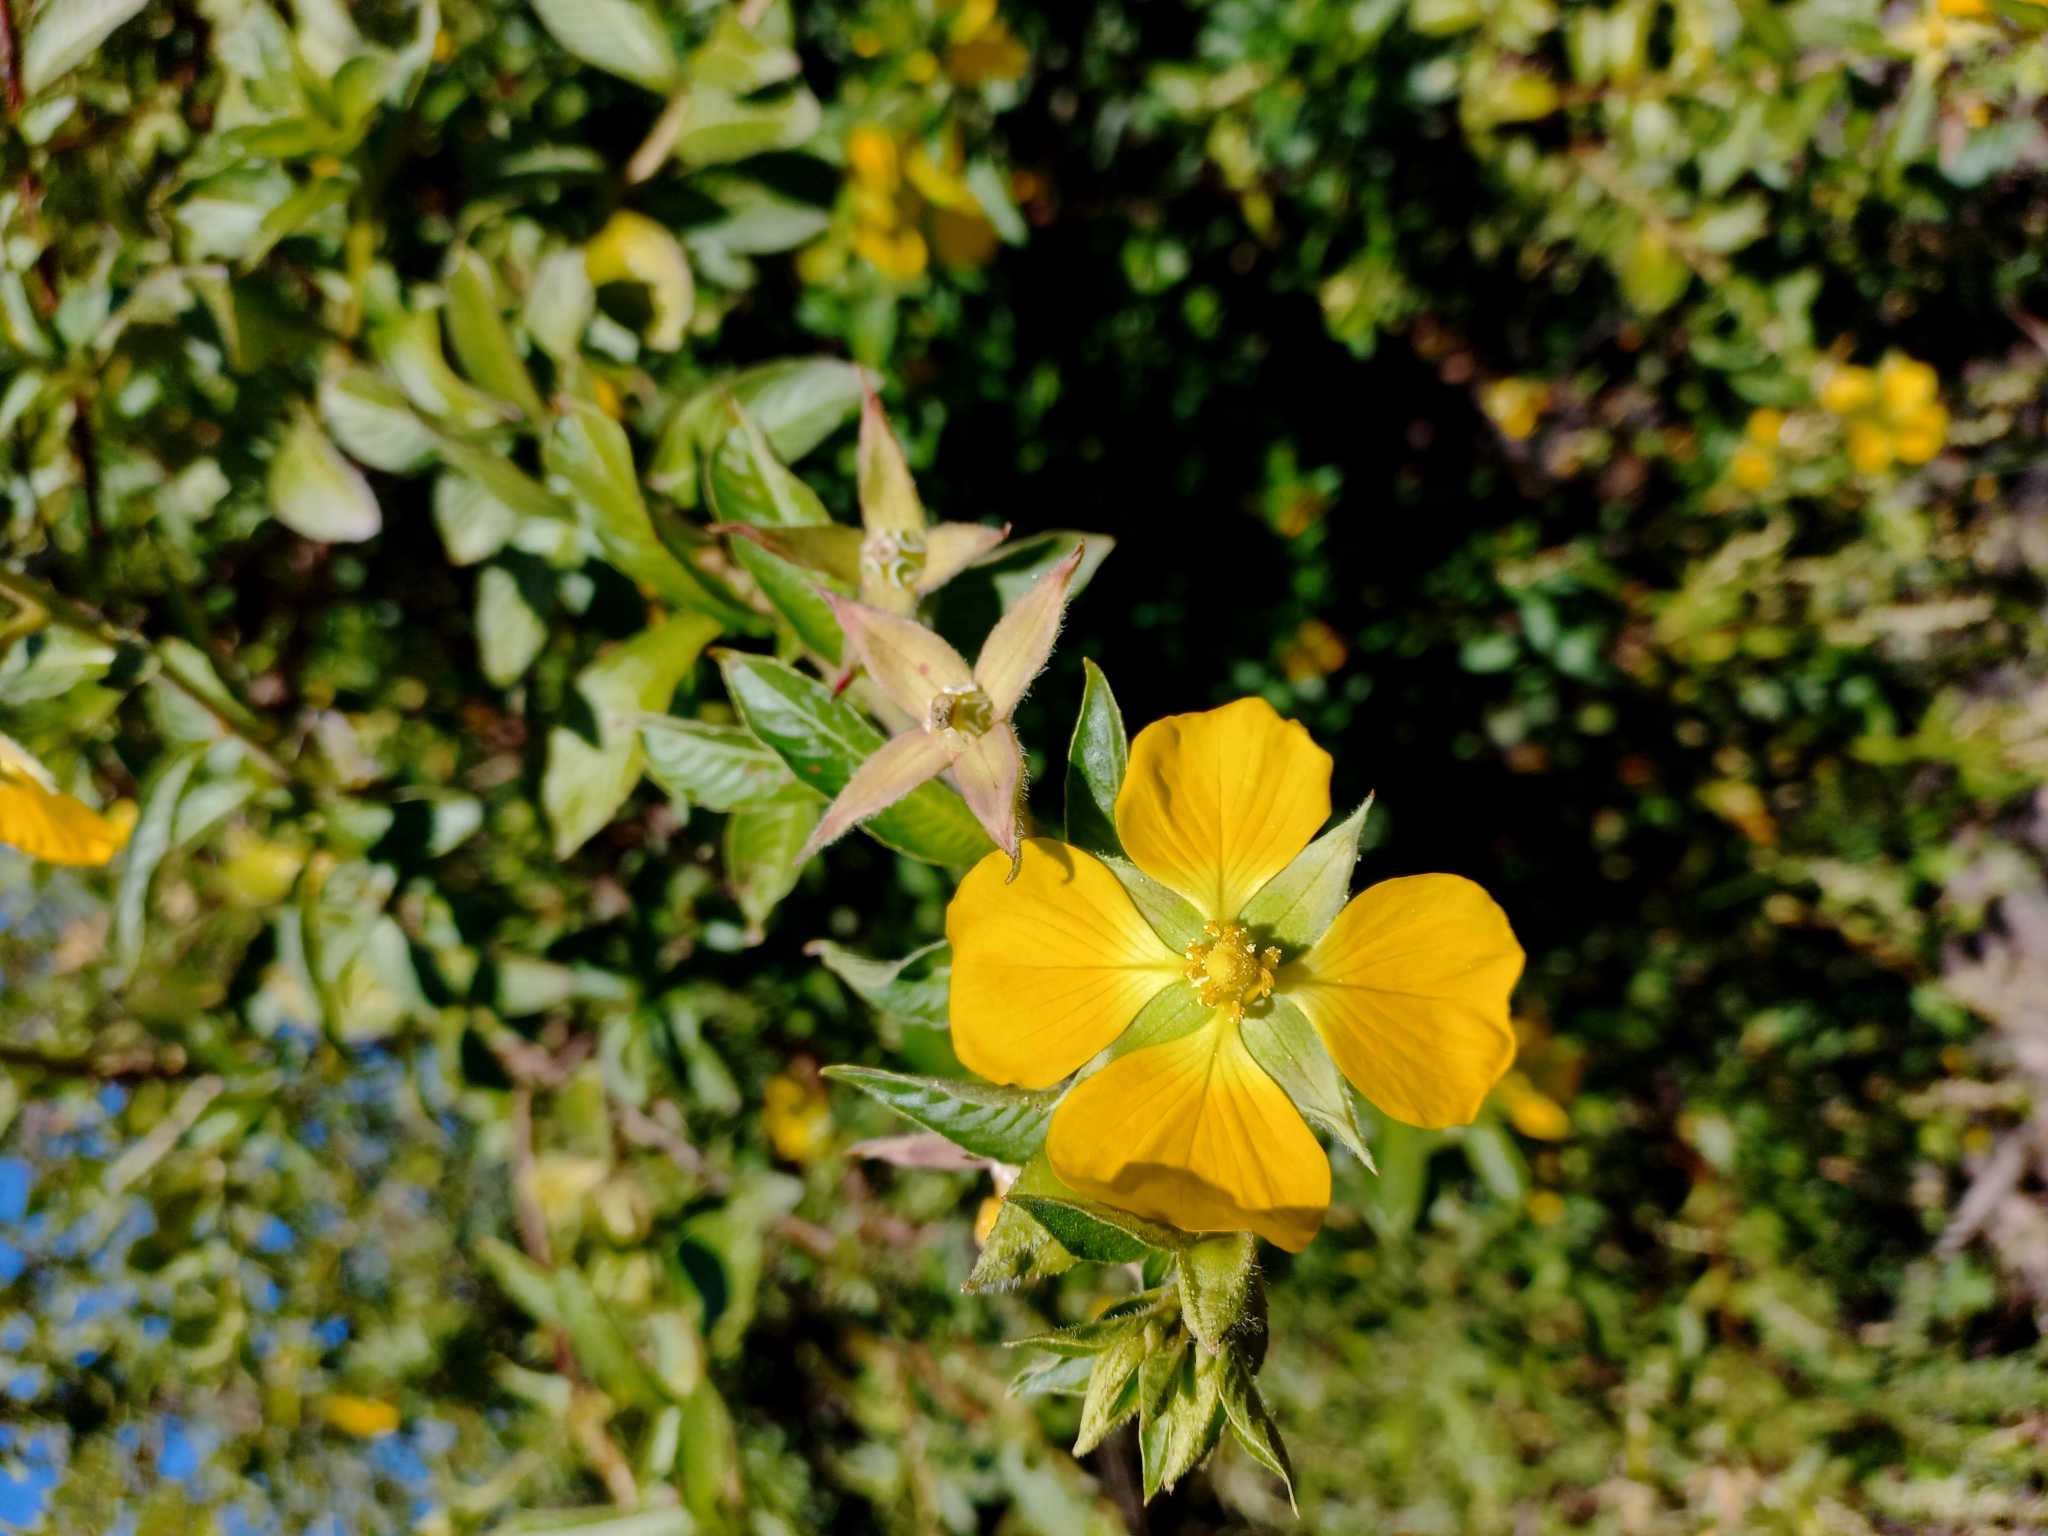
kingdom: Plantae
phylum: Tracheophyta
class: Magnoliopsida
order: Myrtales
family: Onagraceae
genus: Ludwigia
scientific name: Ludwigia peruviana
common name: Peruvian primrose-willow
